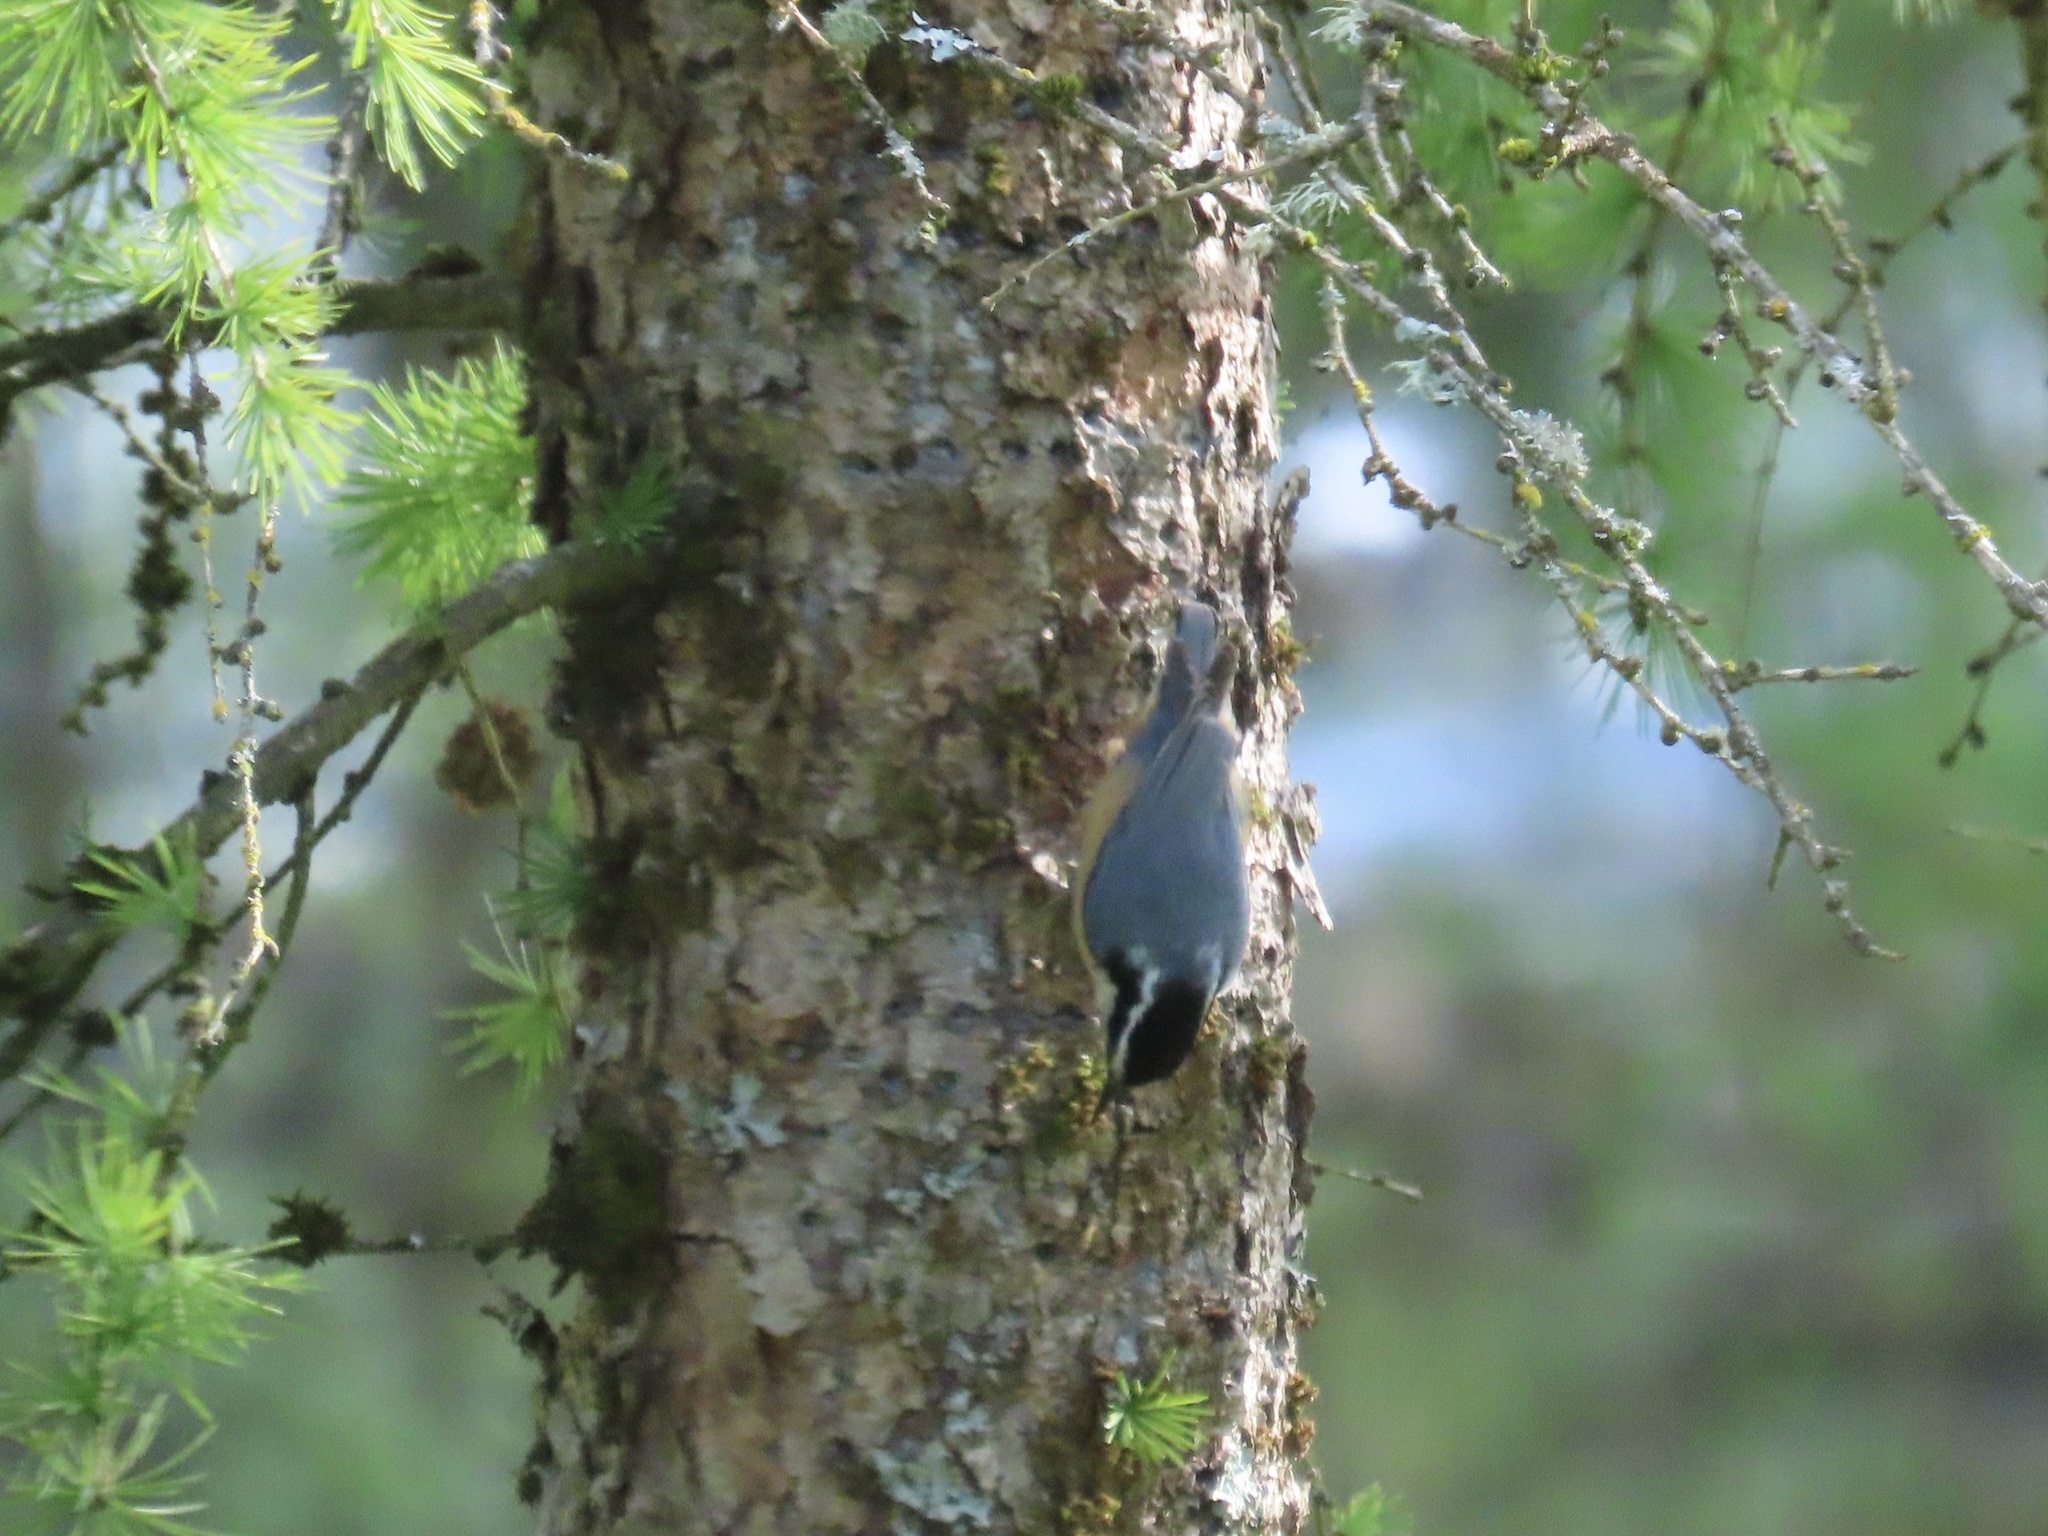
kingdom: Animalia
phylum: Chordata
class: Aves
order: Passeriformes
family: Sittidae
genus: Sitta
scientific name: Sitta canadensis
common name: Red-breasted nuthatch
